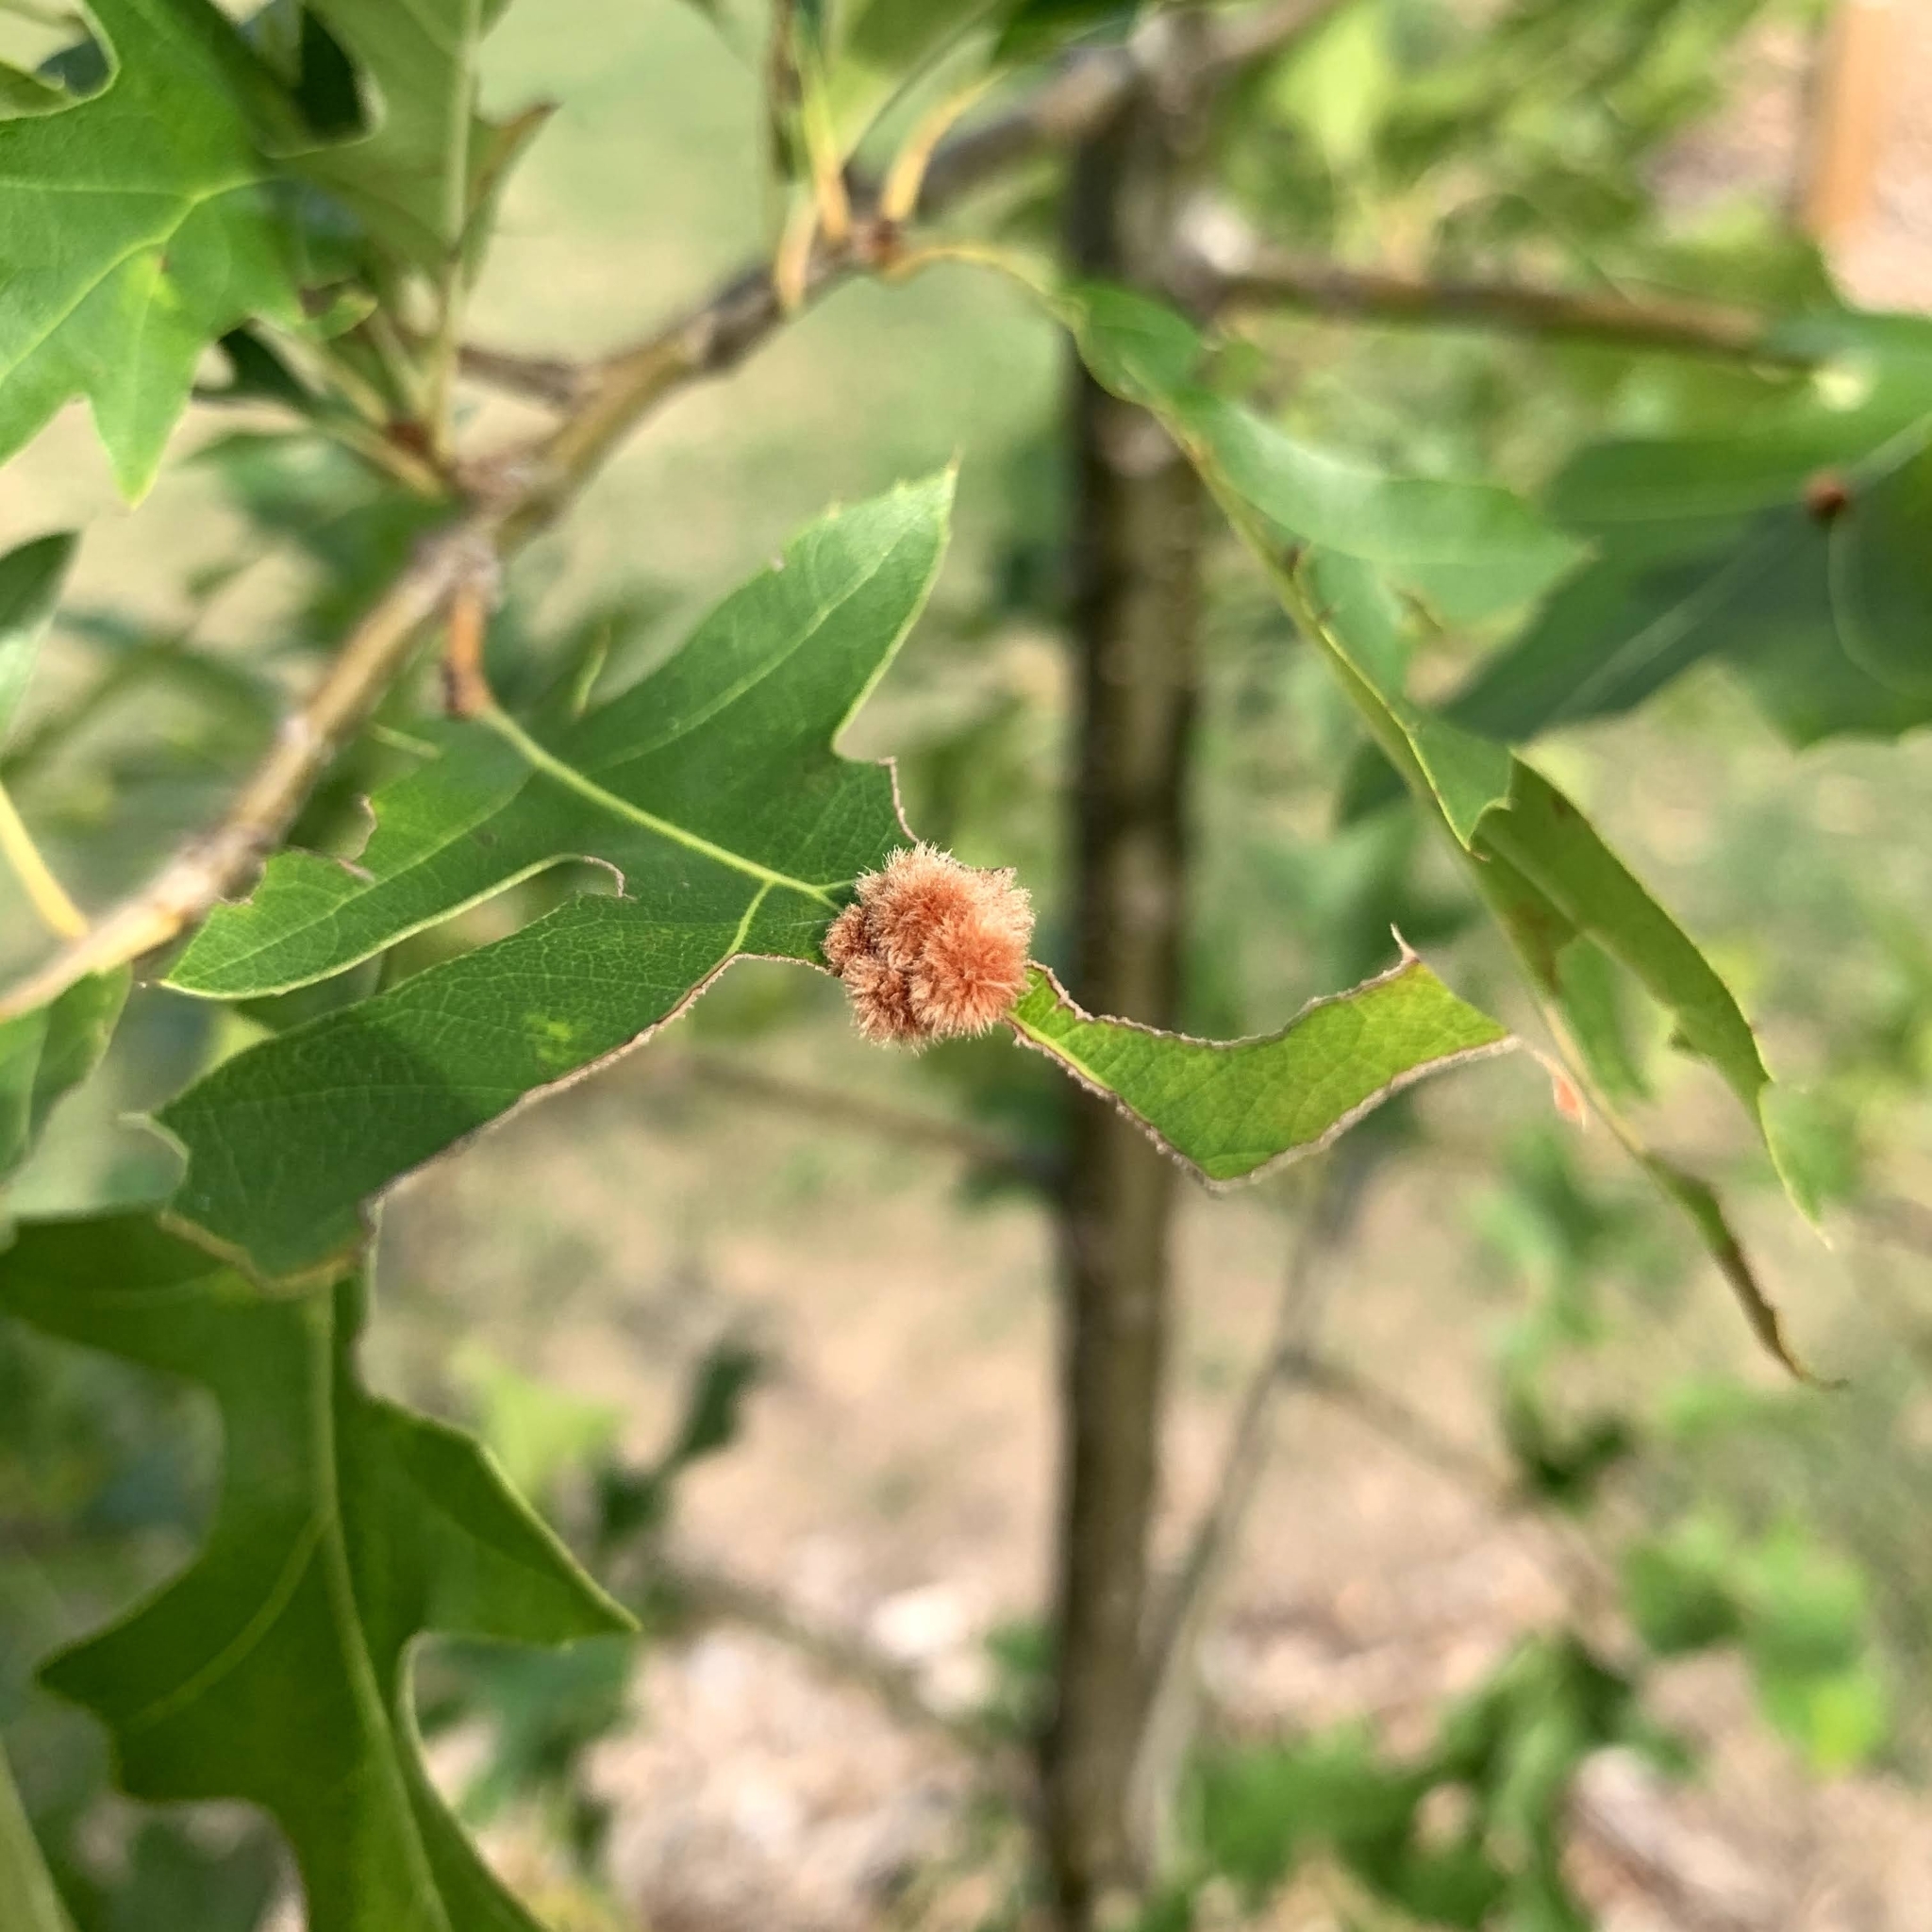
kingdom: Animalia
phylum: Arthropoda
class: Insecta
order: Hymenoptera
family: Cynipidae
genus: Callirhytis
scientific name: Callirhytis
